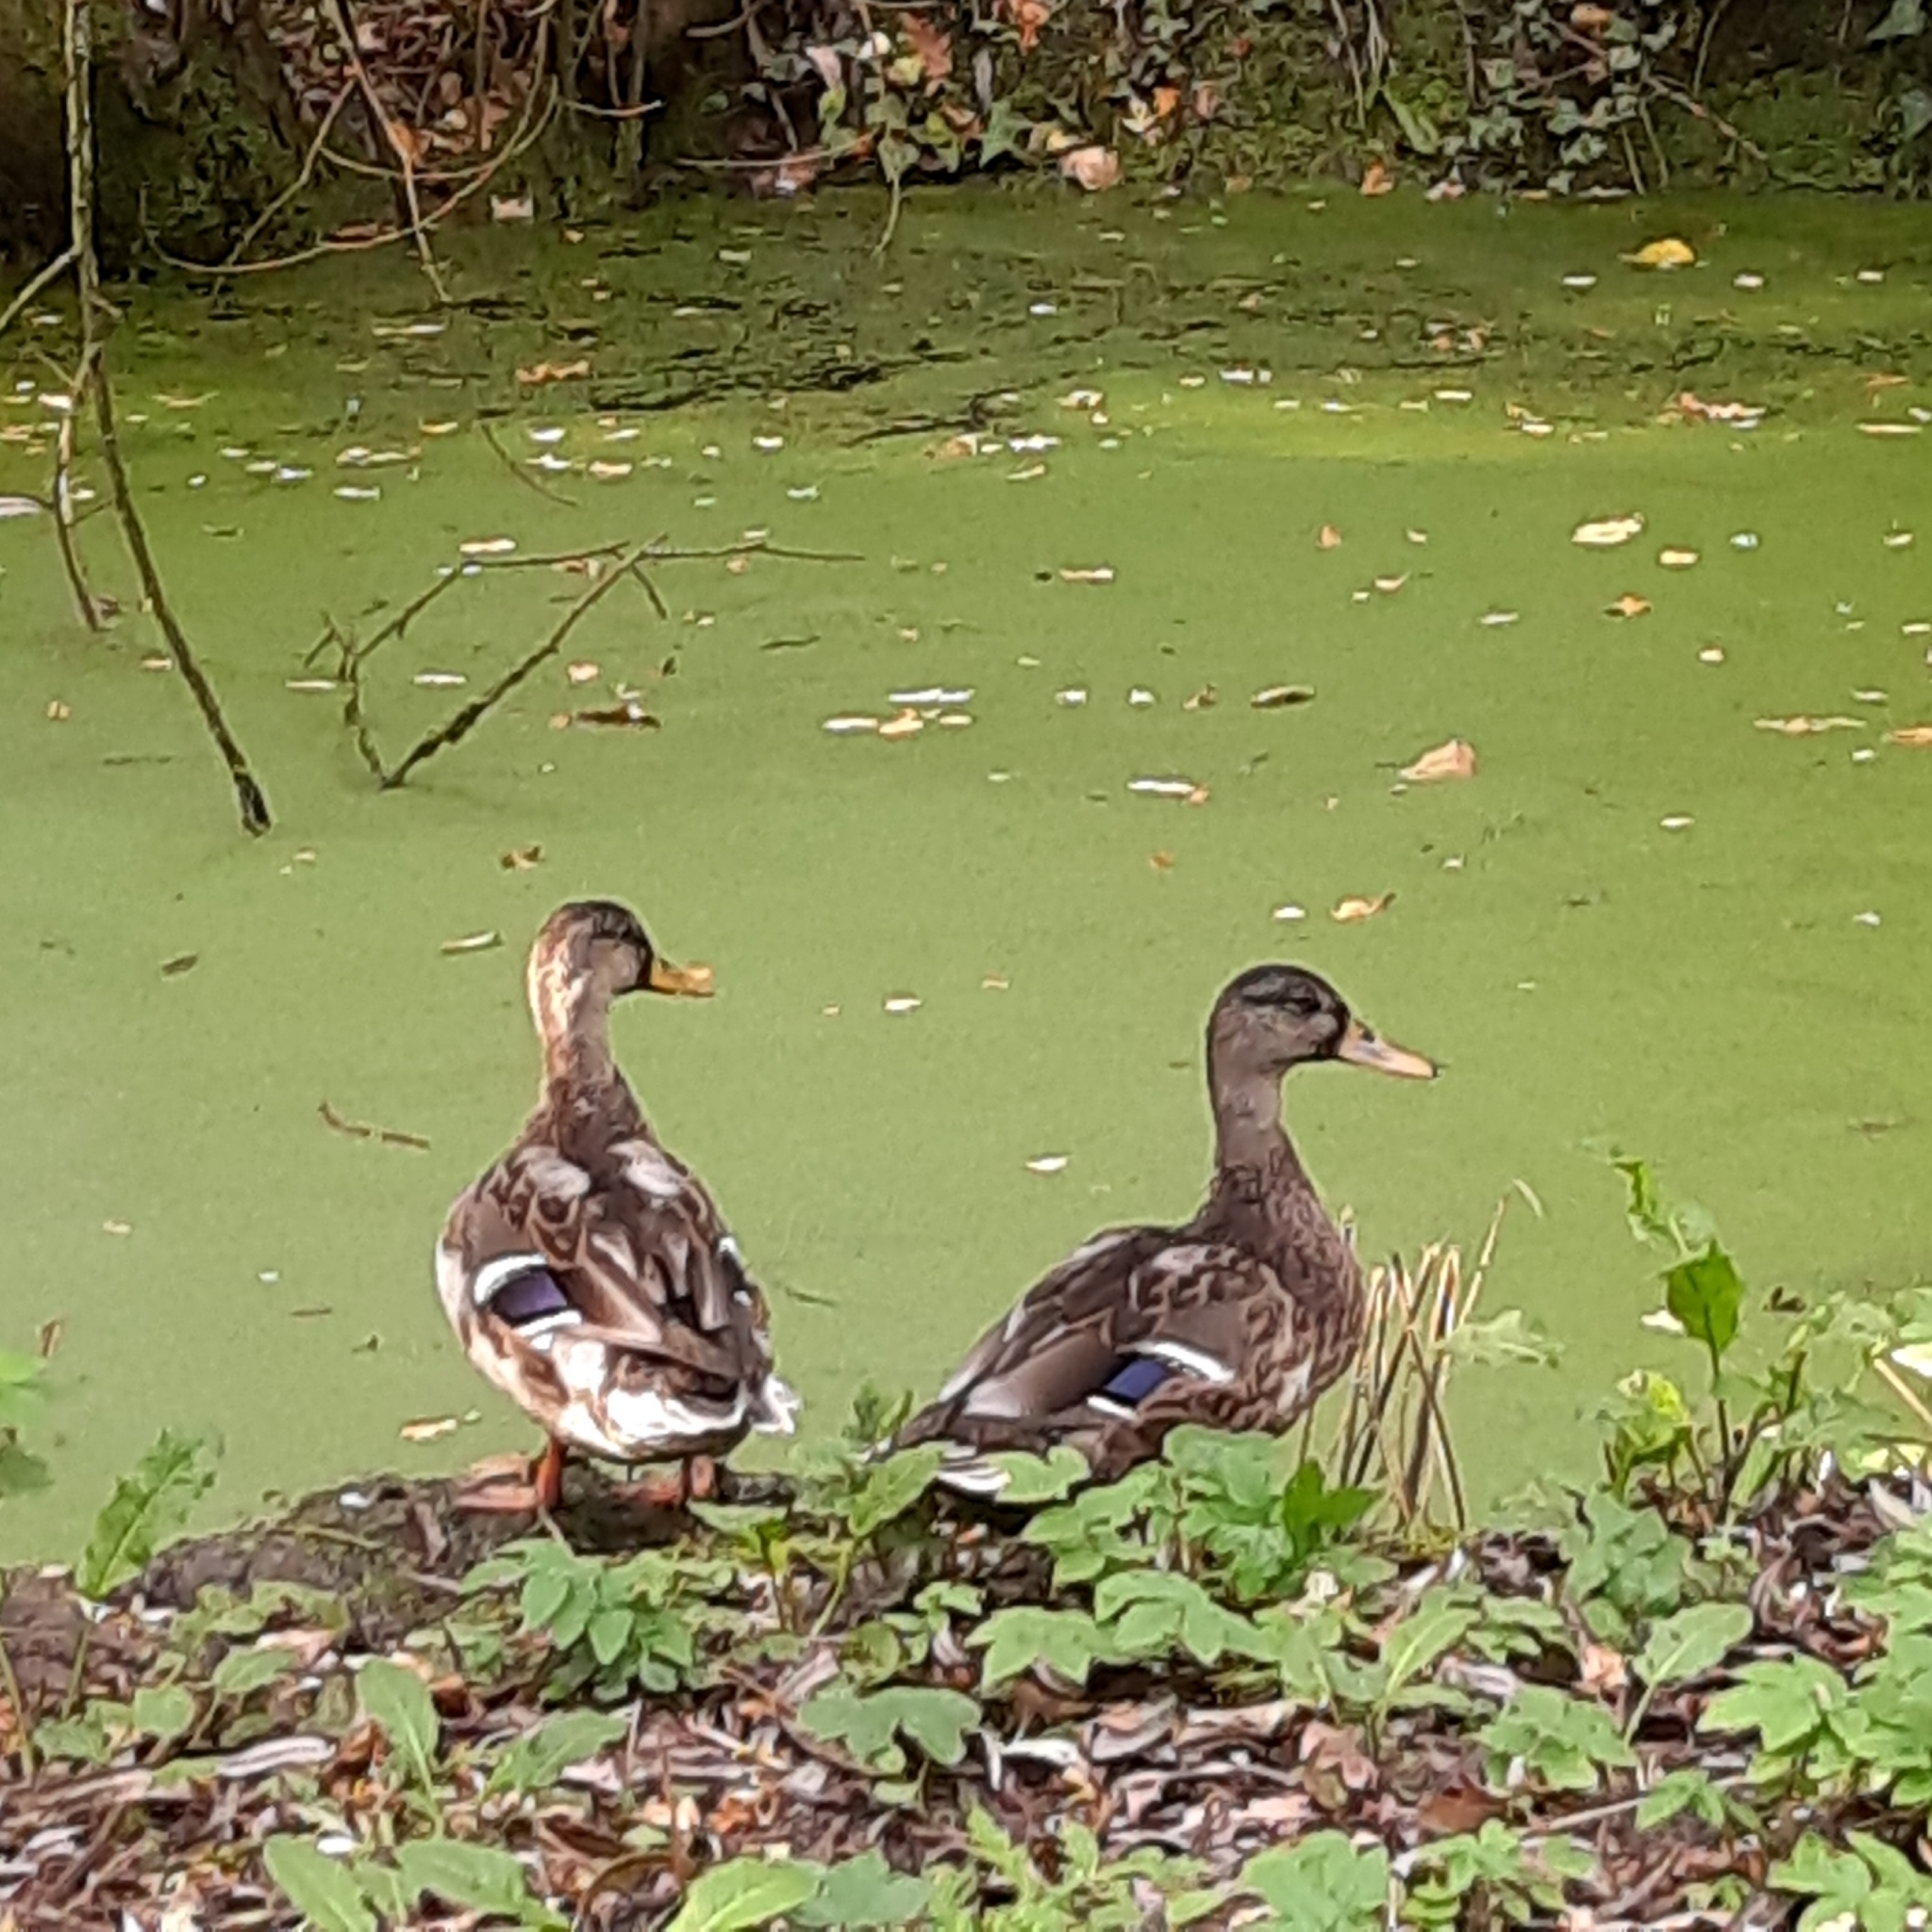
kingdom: Animalia
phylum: Chordata
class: Aves
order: Anseriformes
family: Anatidae
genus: Anas
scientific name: Anas platyrhynchos
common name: Mallard
